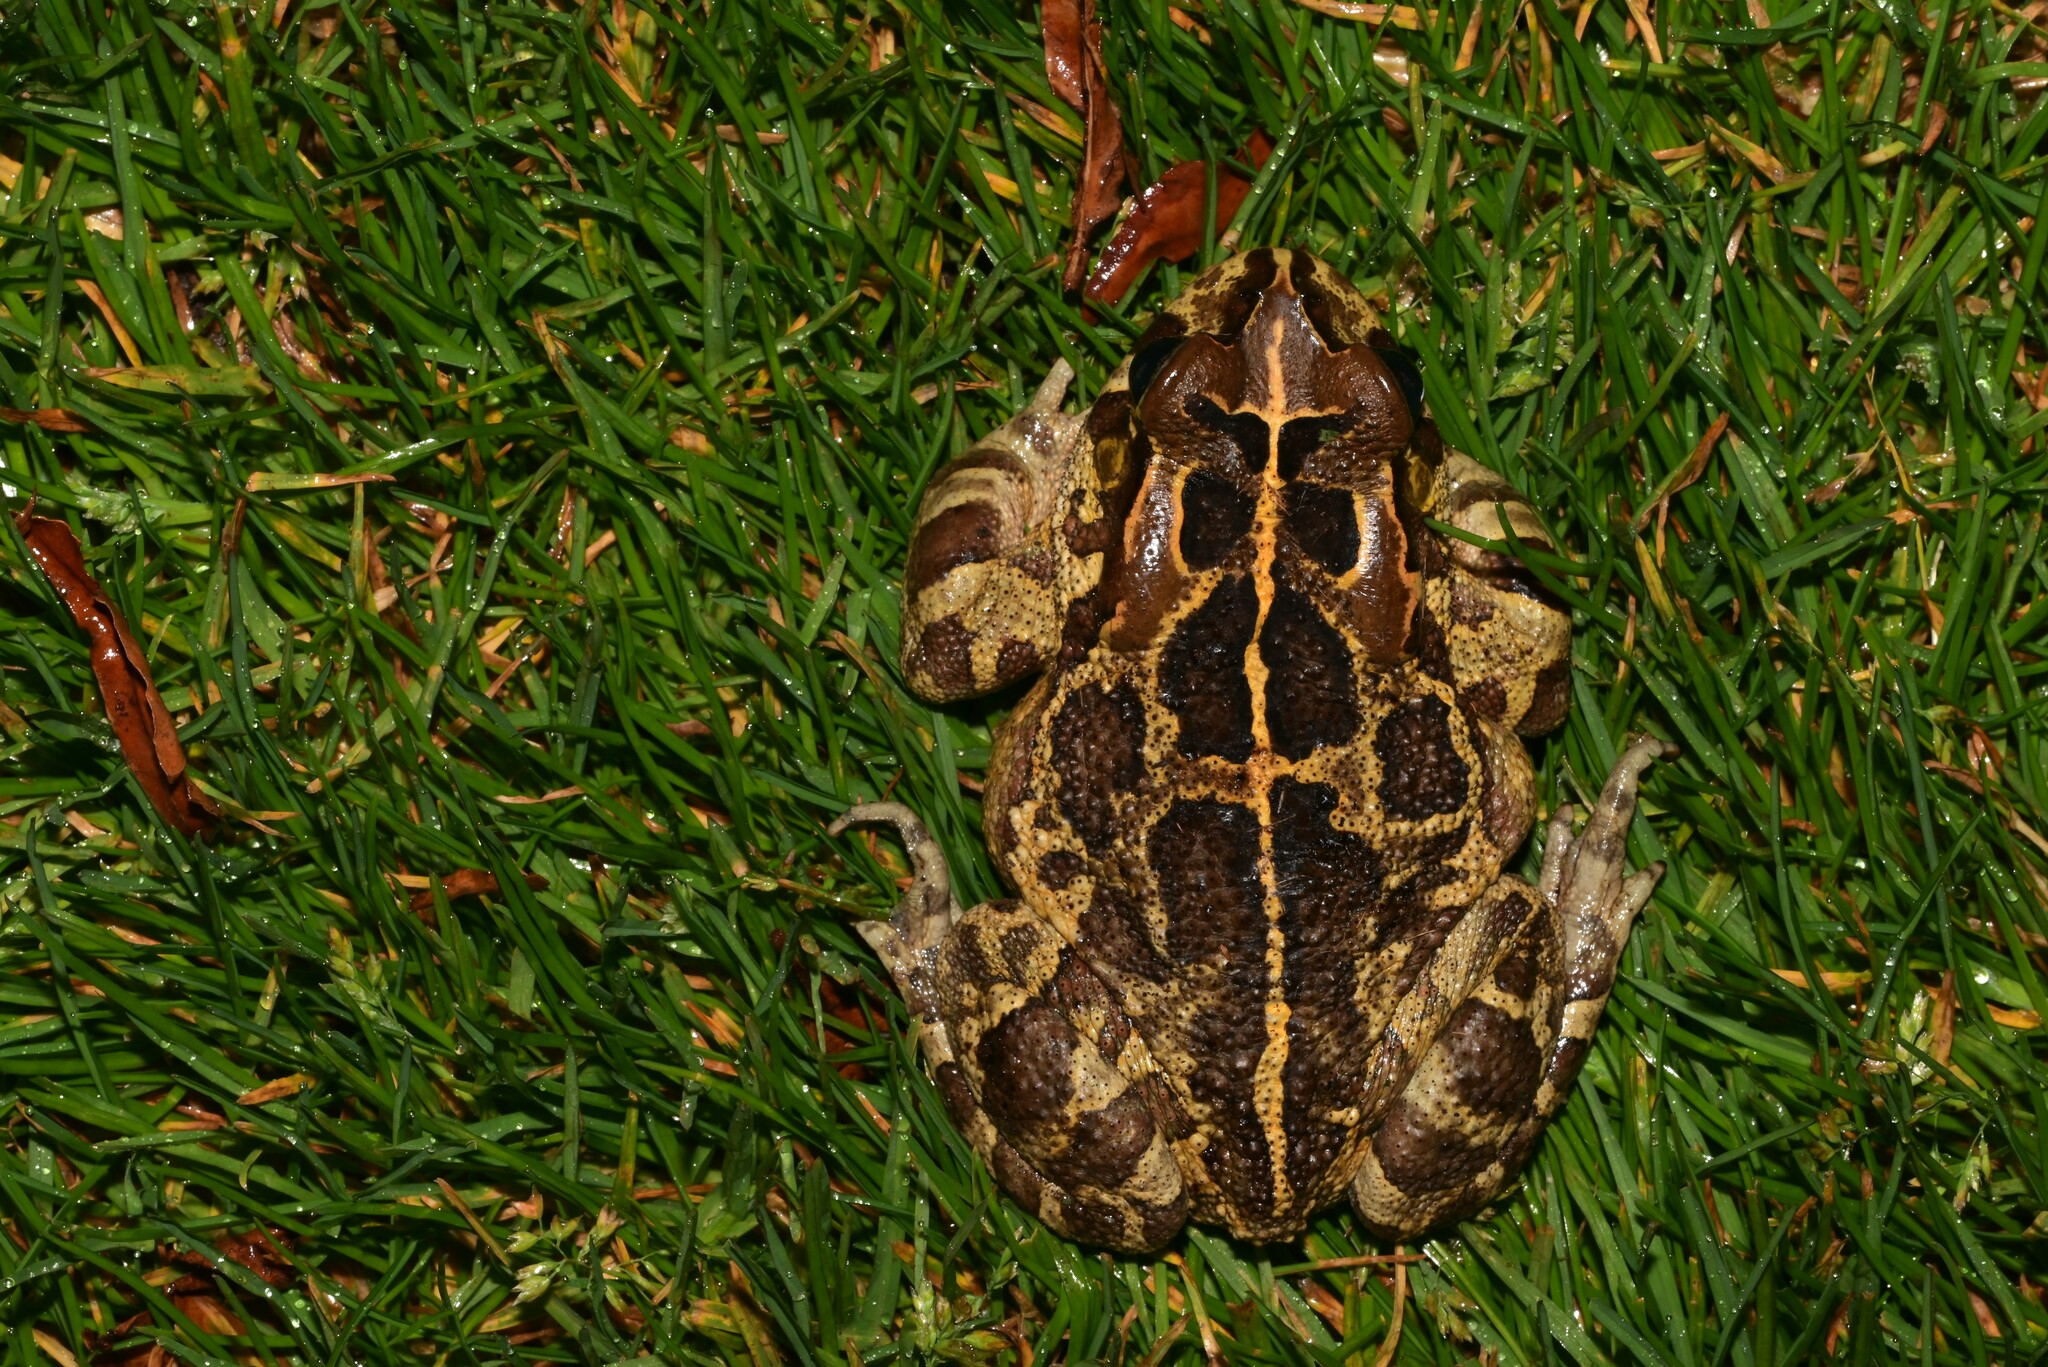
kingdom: Animalia
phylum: Chordata
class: Amphibia
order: Anura
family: Bufonidae
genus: Sclerophrys
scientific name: Sclerophrys pantherina
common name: Panther toad
